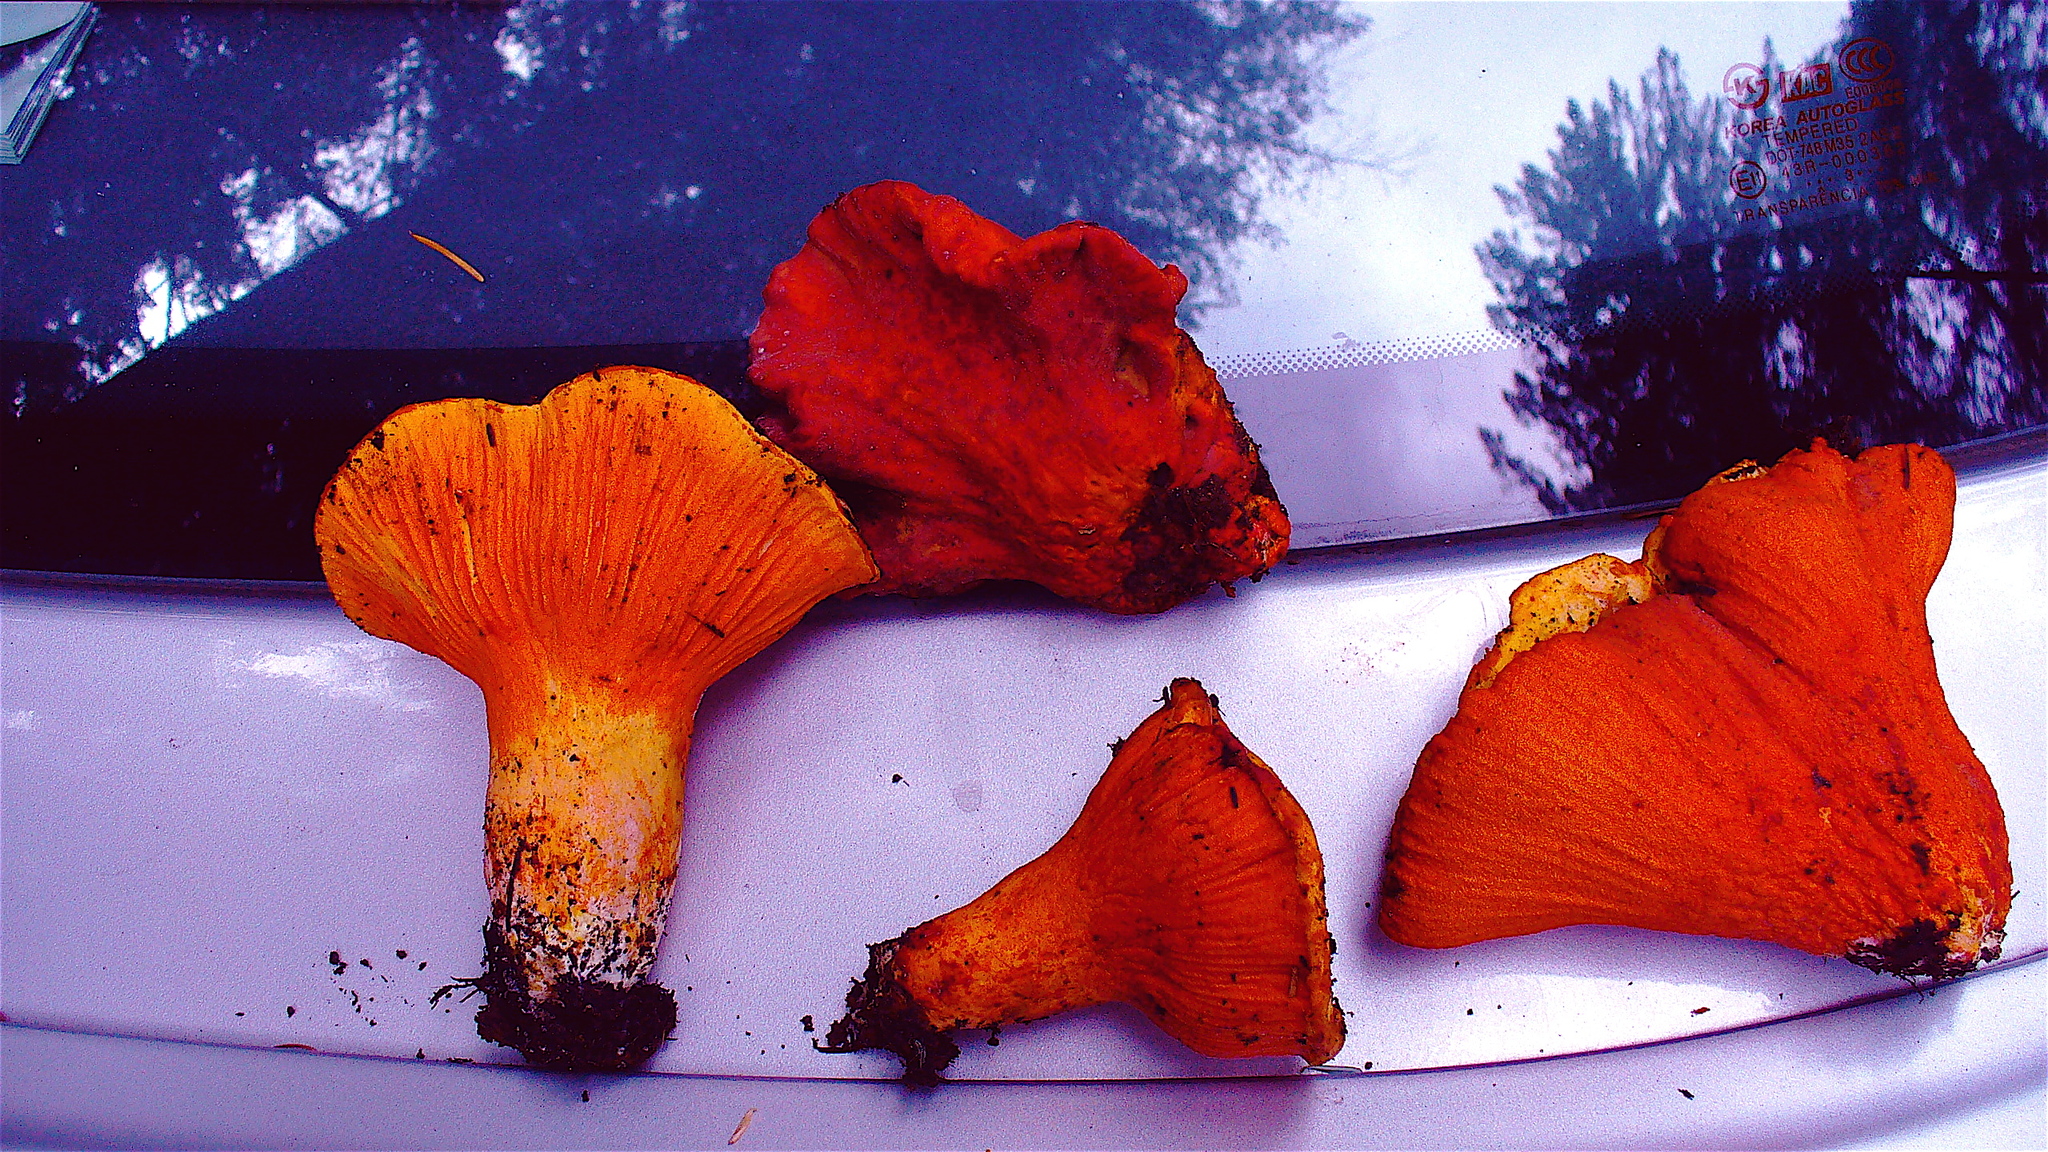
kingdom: Fungi
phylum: Ascomycota
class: Sordariomycetes
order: Hypocreales
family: Hypocreaceae
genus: Hypomyces
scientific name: Hypomyces lactifluorum
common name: Lobster mushroom
